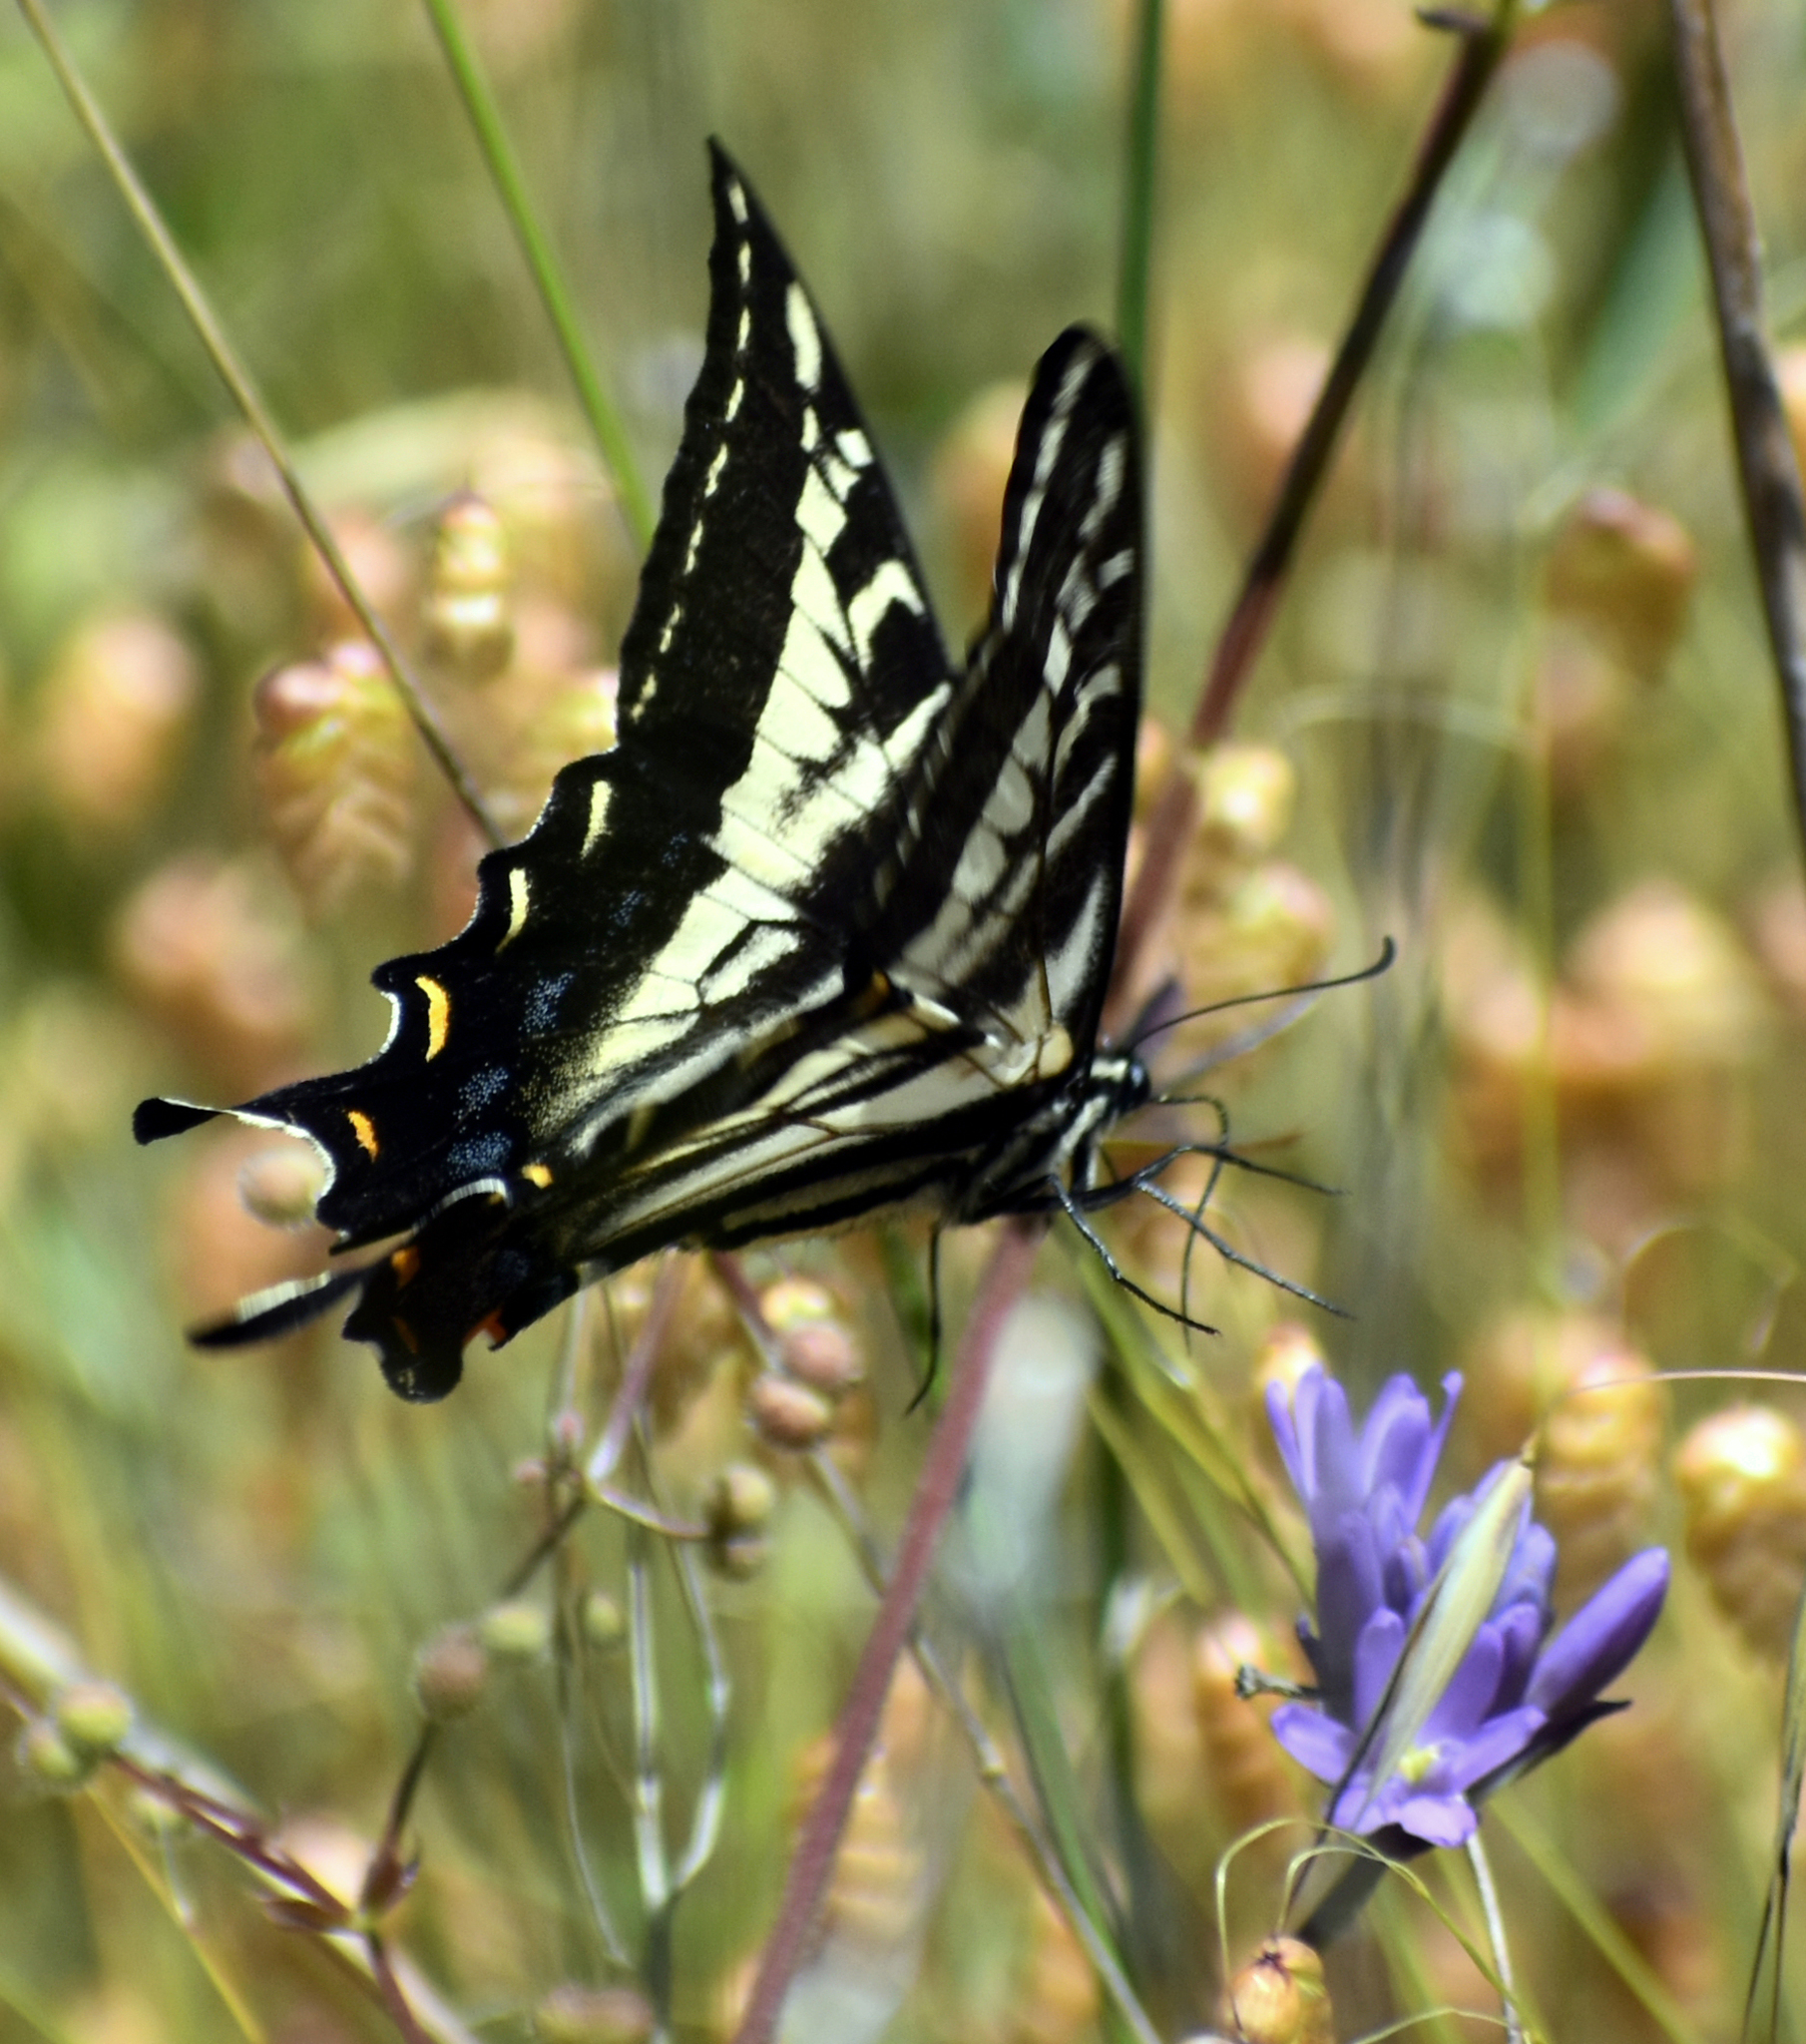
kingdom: Animalia
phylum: Arthropoda
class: Insecta
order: Lepidoptera
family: Papilionidae
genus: Papilio
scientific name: Papilio eurymedon
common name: Pale tiger swallowtail
